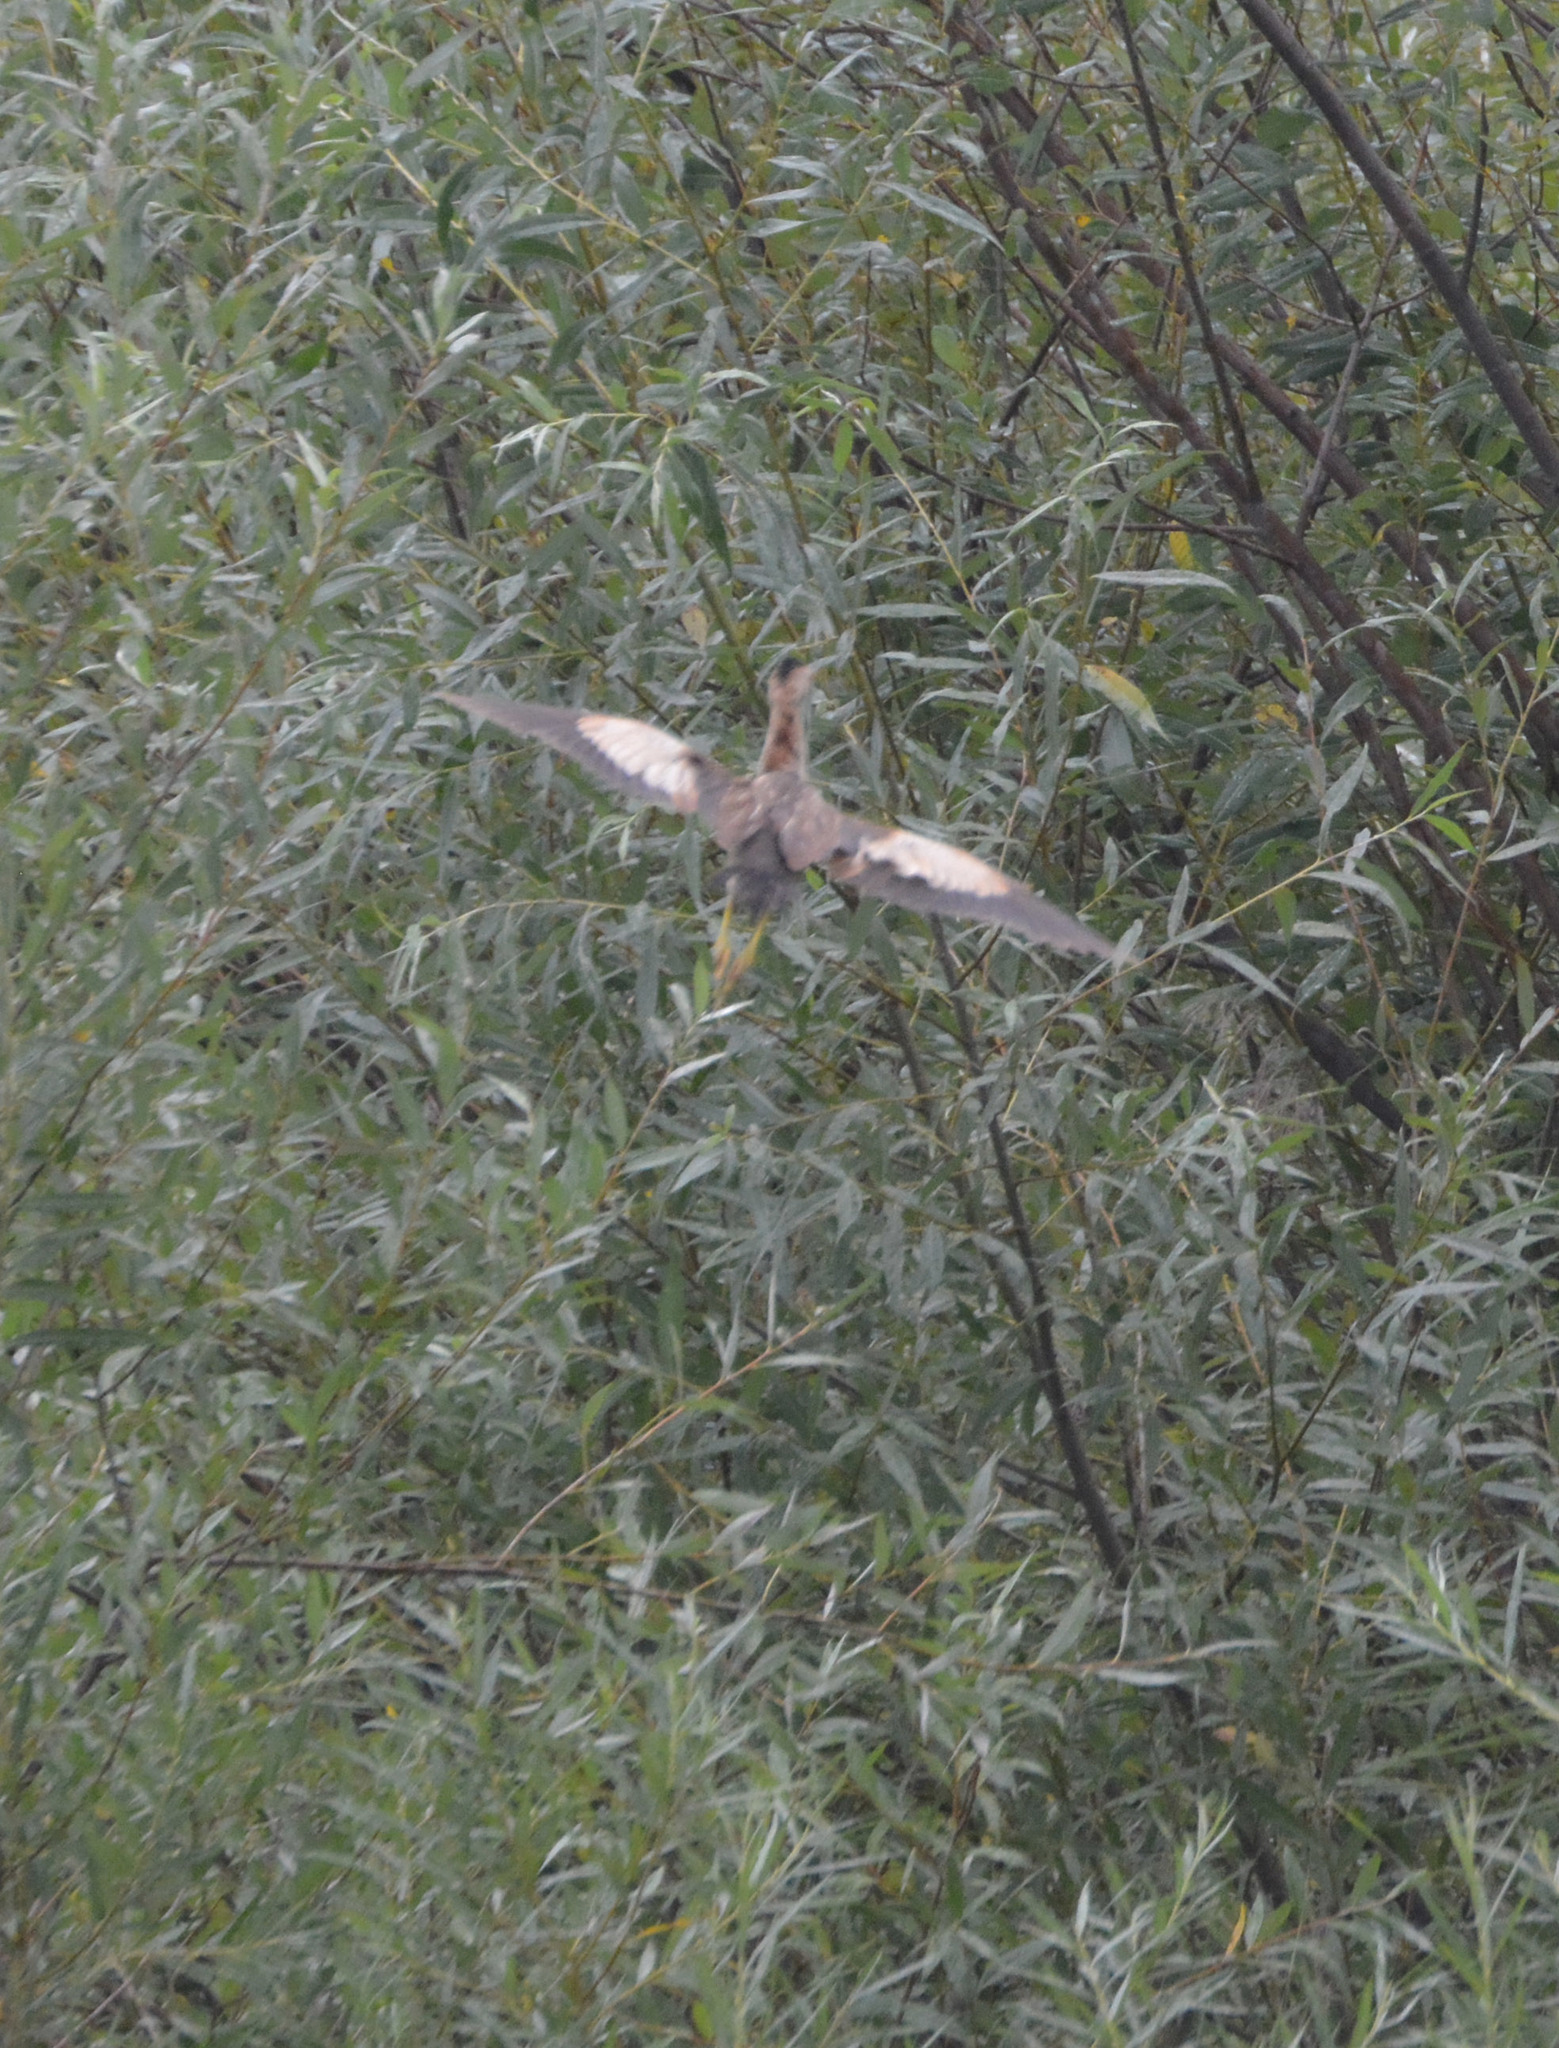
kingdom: Animalia
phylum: Chordata
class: Aves
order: Pelecaniformes
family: Ardeidae
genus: Ixobrychus
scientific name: Ixobrychus minutus
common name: Little bittern
